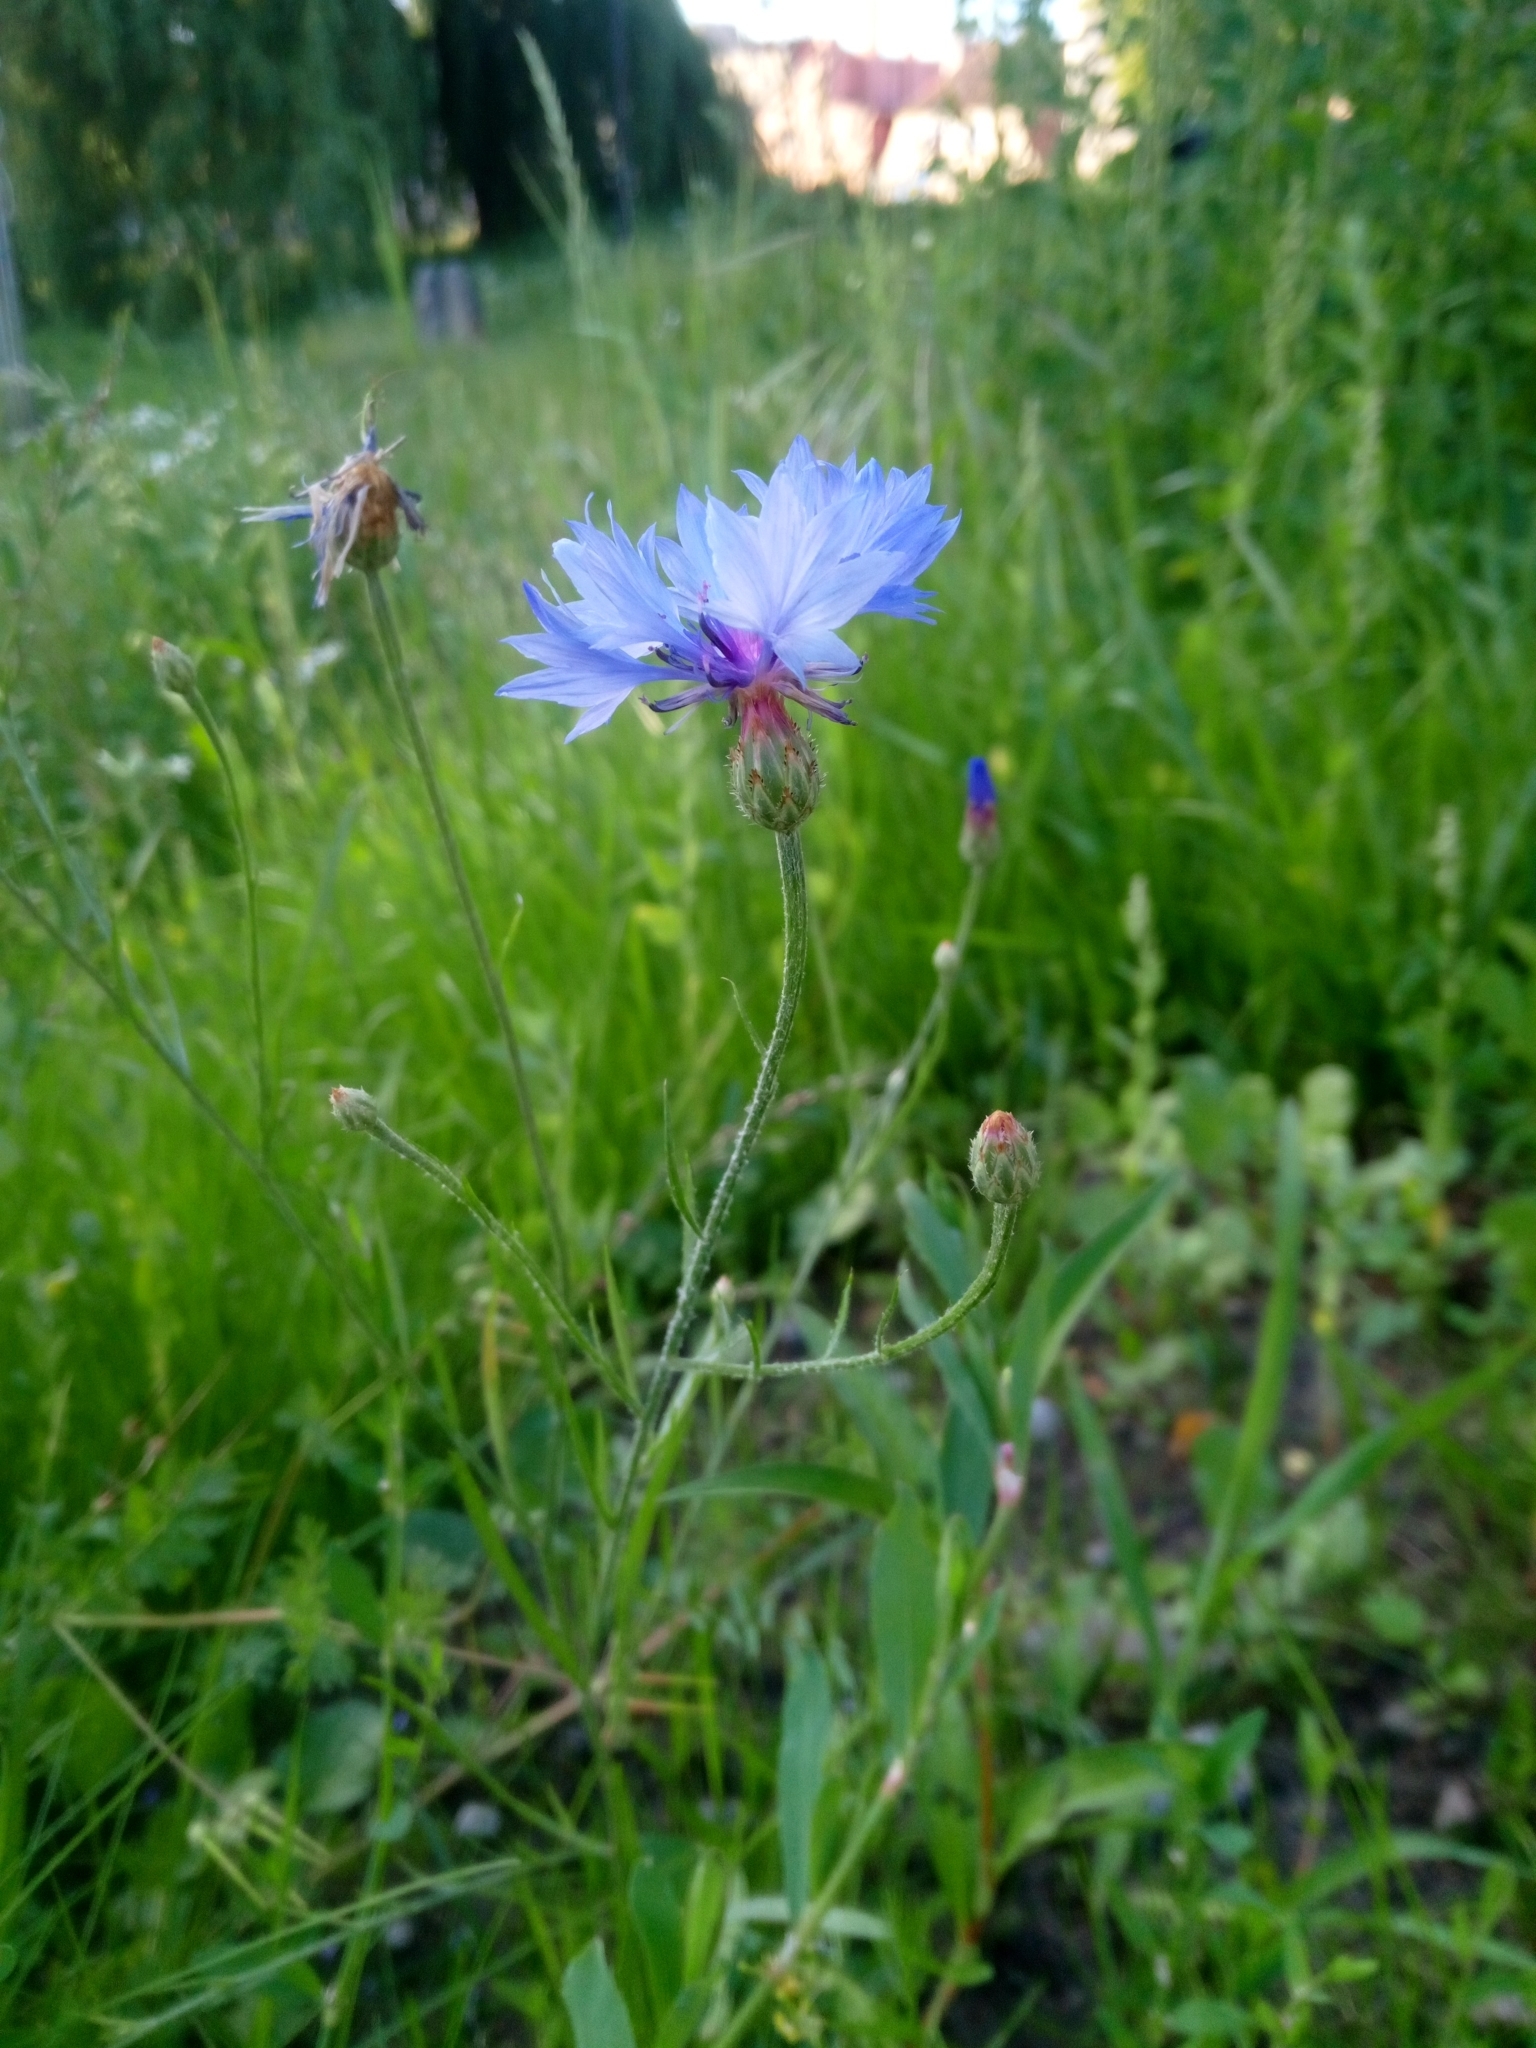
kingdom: Plantae
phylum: Tracheophyta
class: Magnoliopsida
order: Asterales
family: Asteraceae
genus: Centaurea
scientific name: Centaurea cyanus
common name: Cornflower
